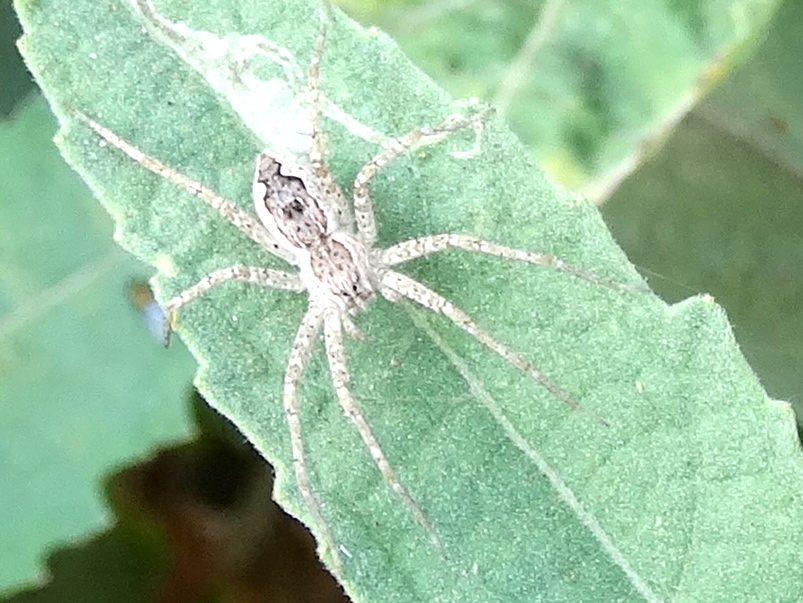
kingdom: Animalia
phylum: Arthropoda
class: Arachnida
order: Araneae
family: Pisauridae
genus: Tinus
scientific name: Tinus
